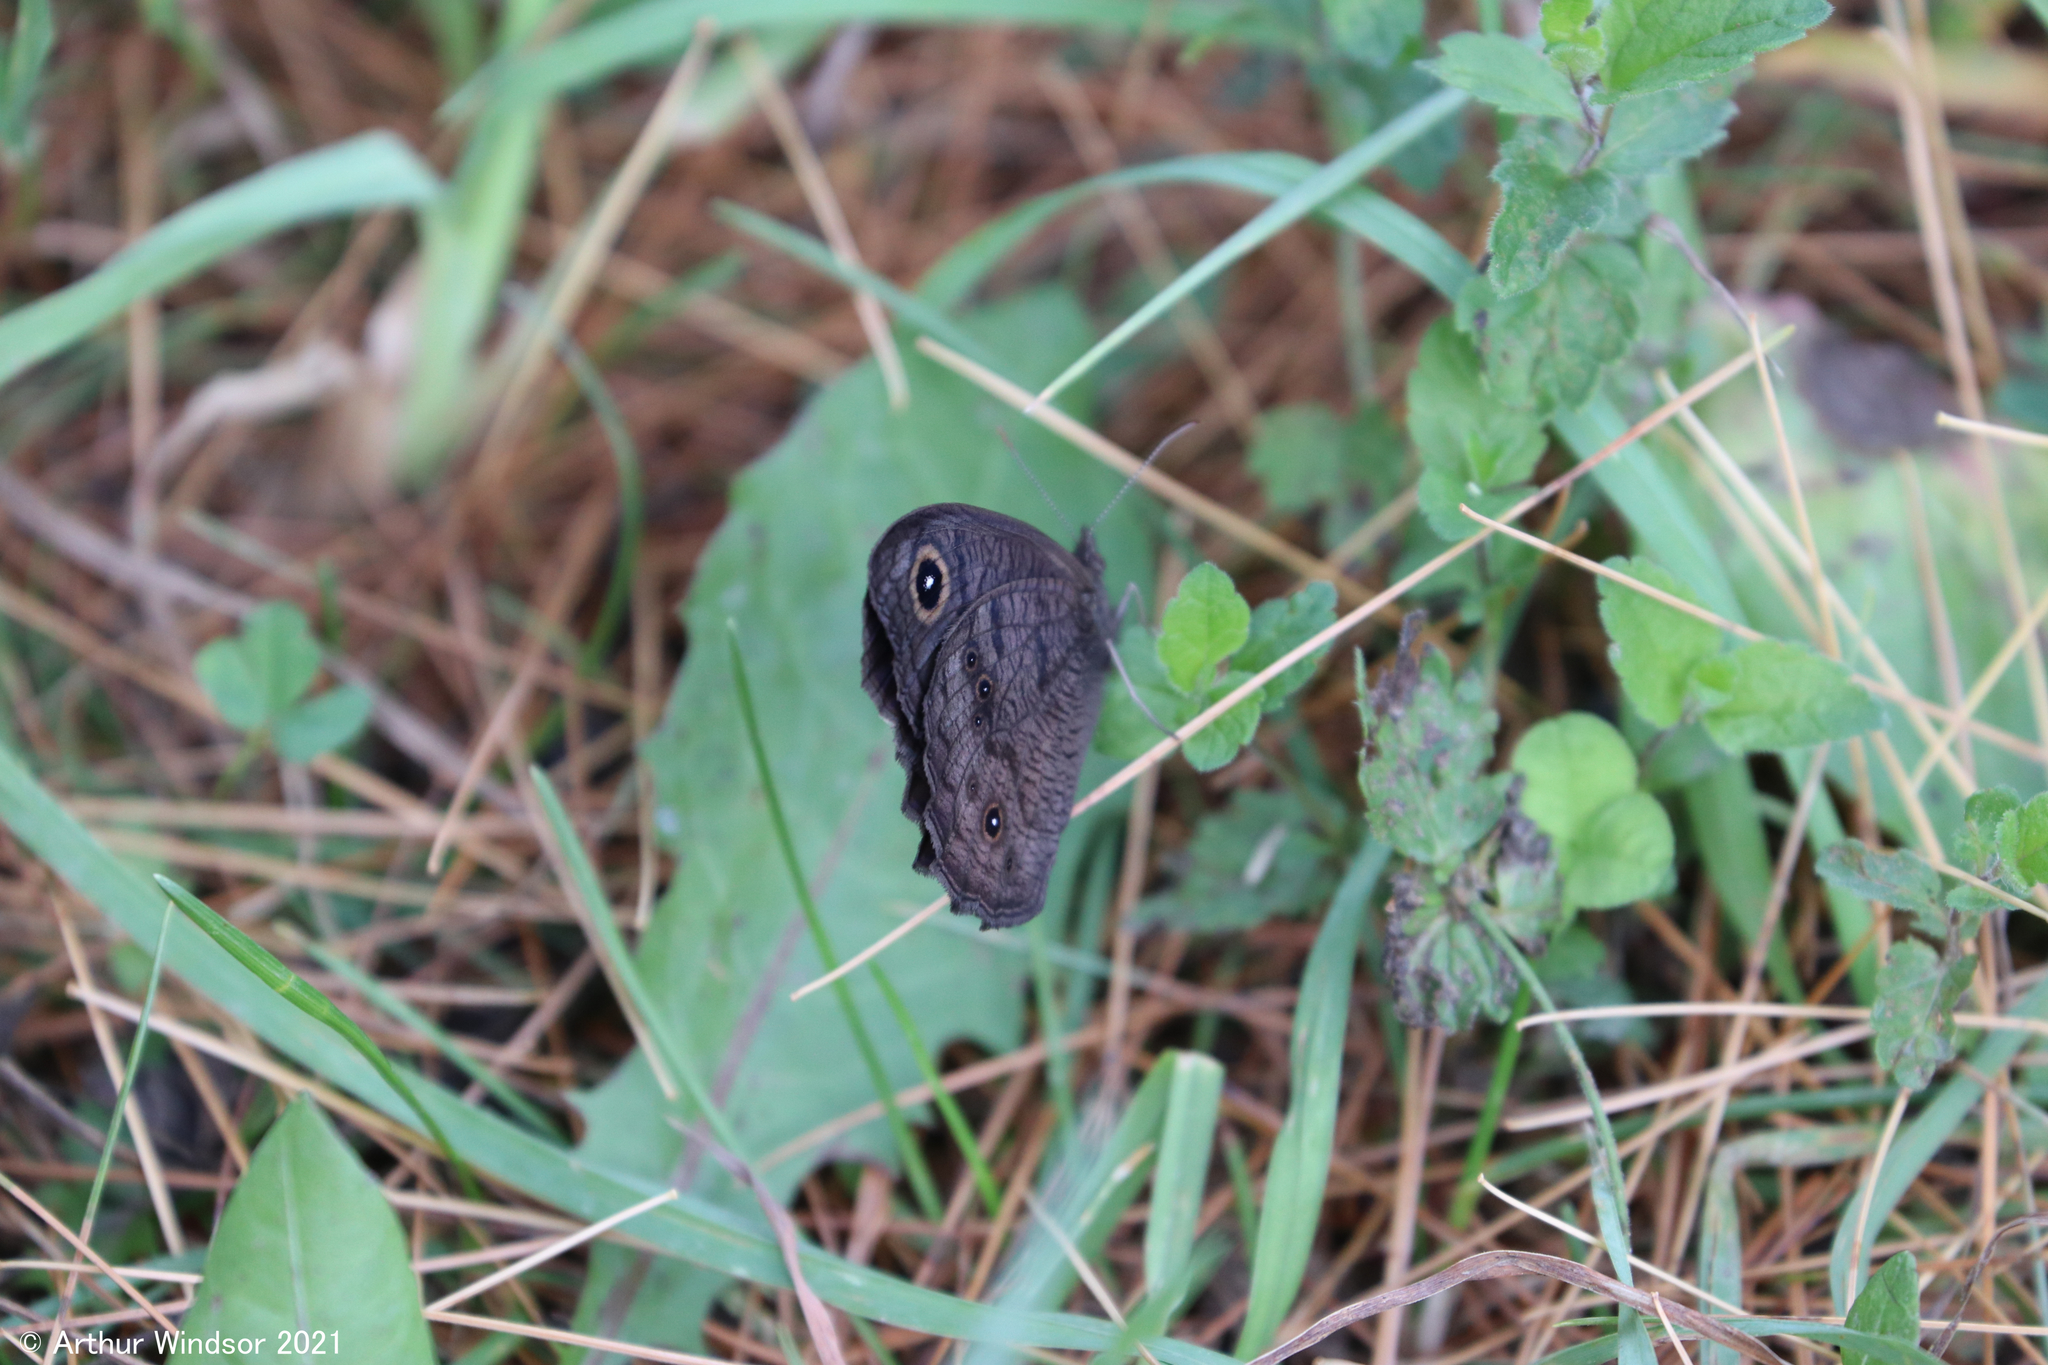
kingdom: Animalia
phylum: Arthropoda
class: Insecta
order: Lepidoptera
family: Nymphalidae
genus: Cercyonis
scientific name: Cercyonis pegala
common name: Common wood-nymph
